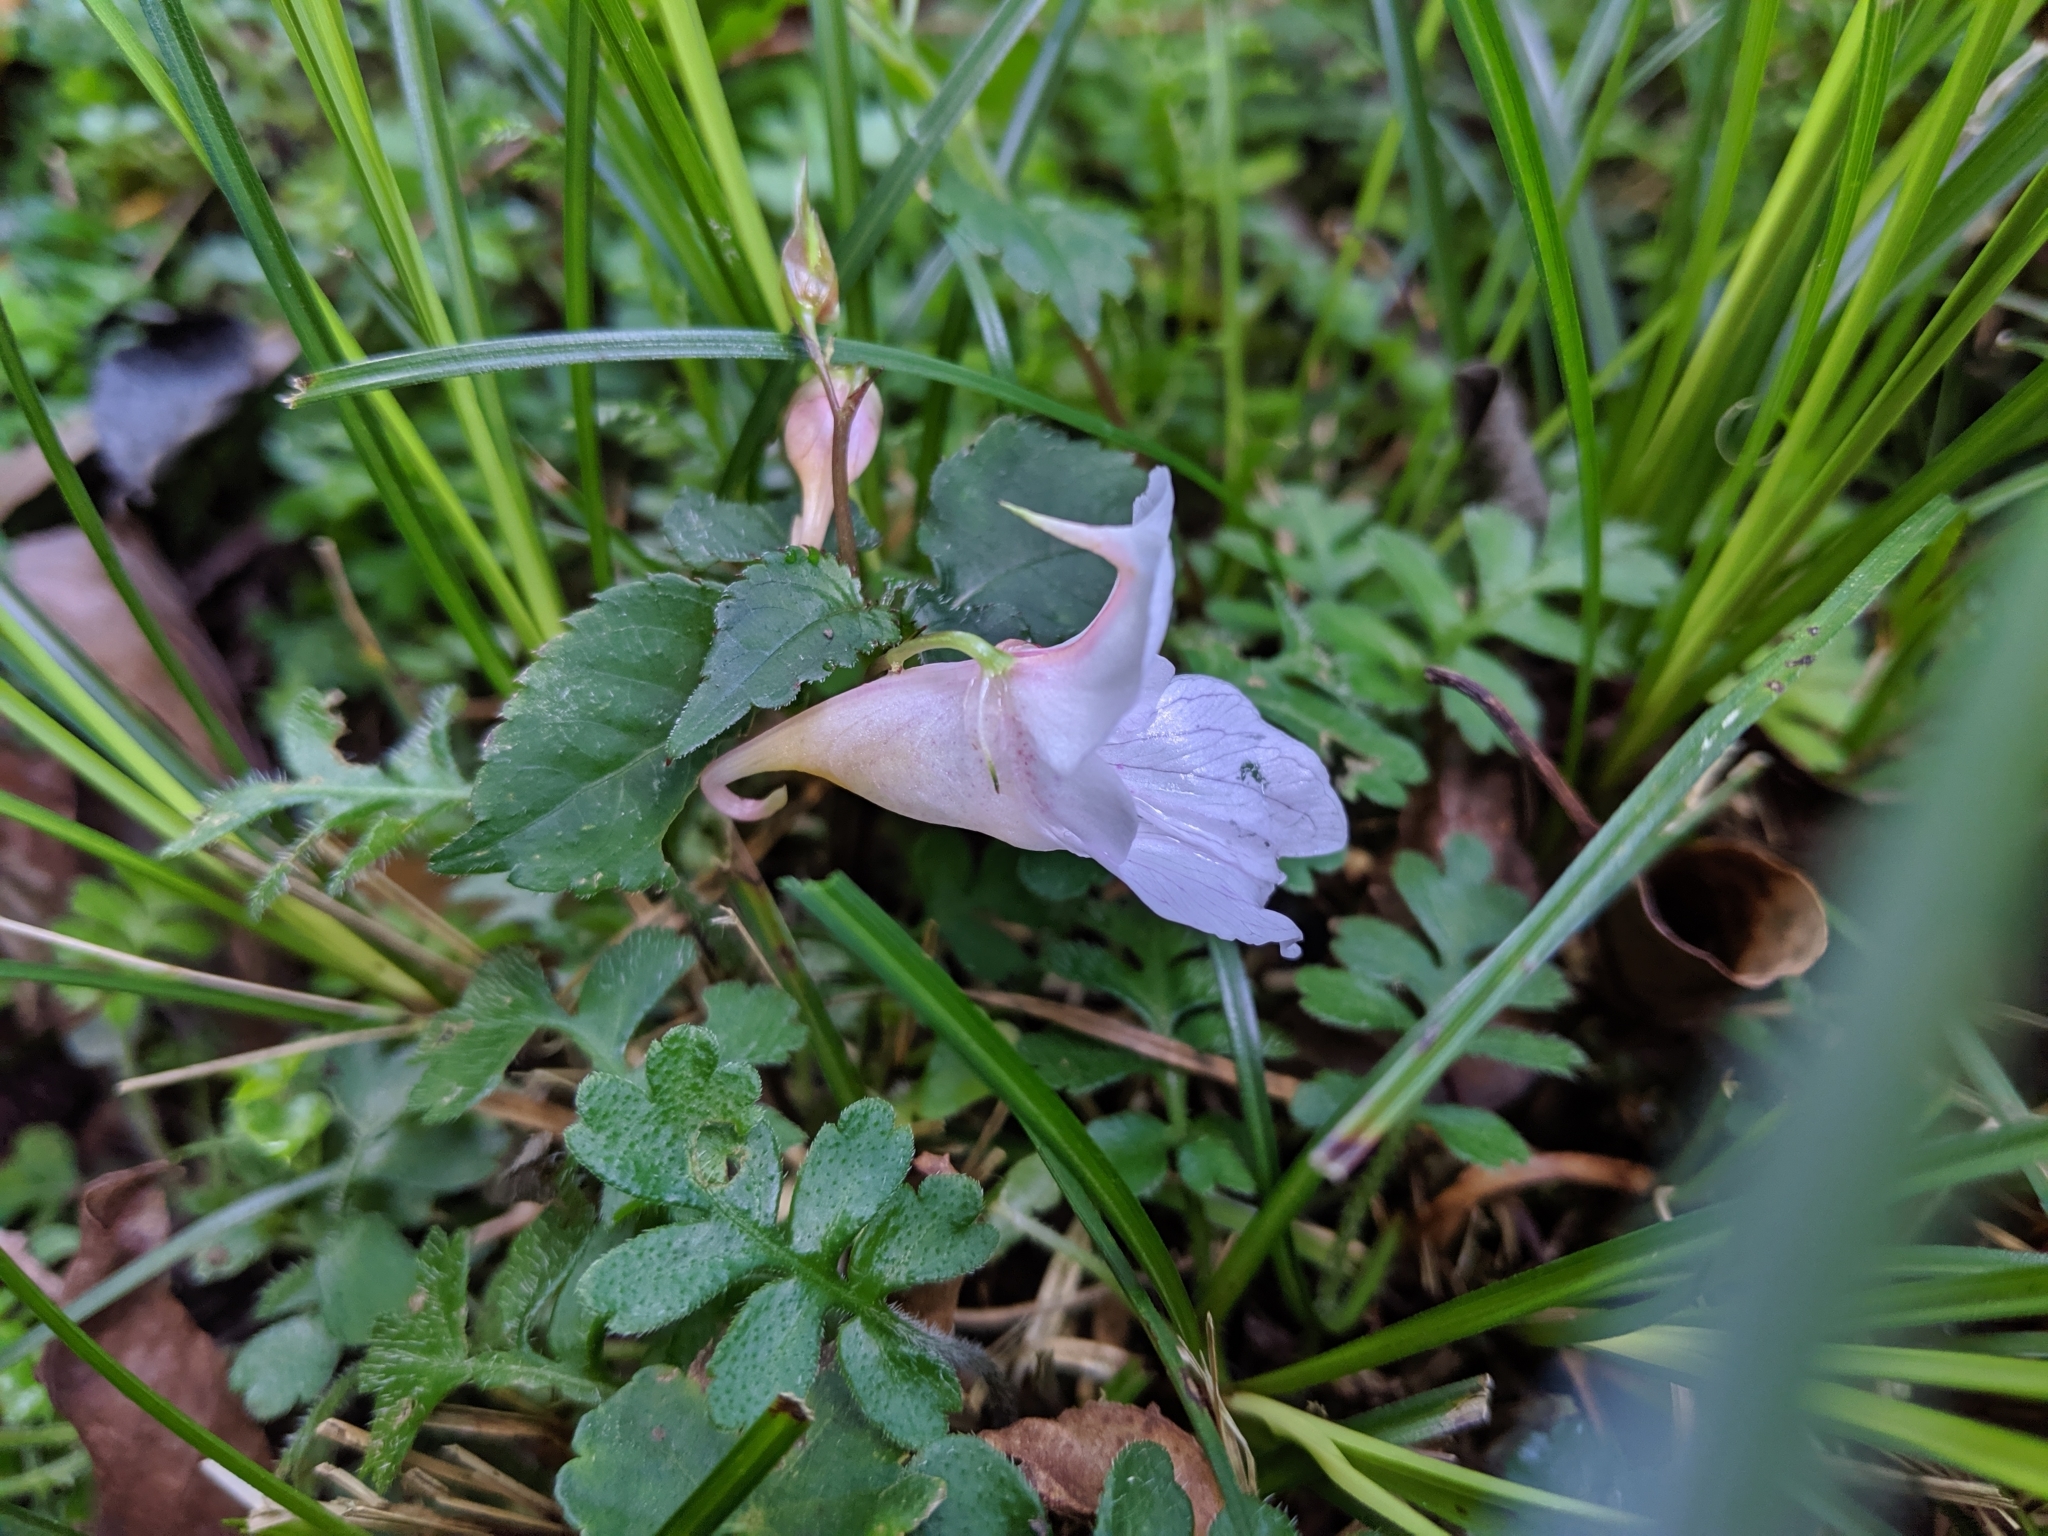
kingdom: Plantae
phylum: Tracheophyta
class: Magnoliopsida
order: Ericales
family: Balsaminaceae
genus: Impatiens
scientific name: Impatiens uniflora
